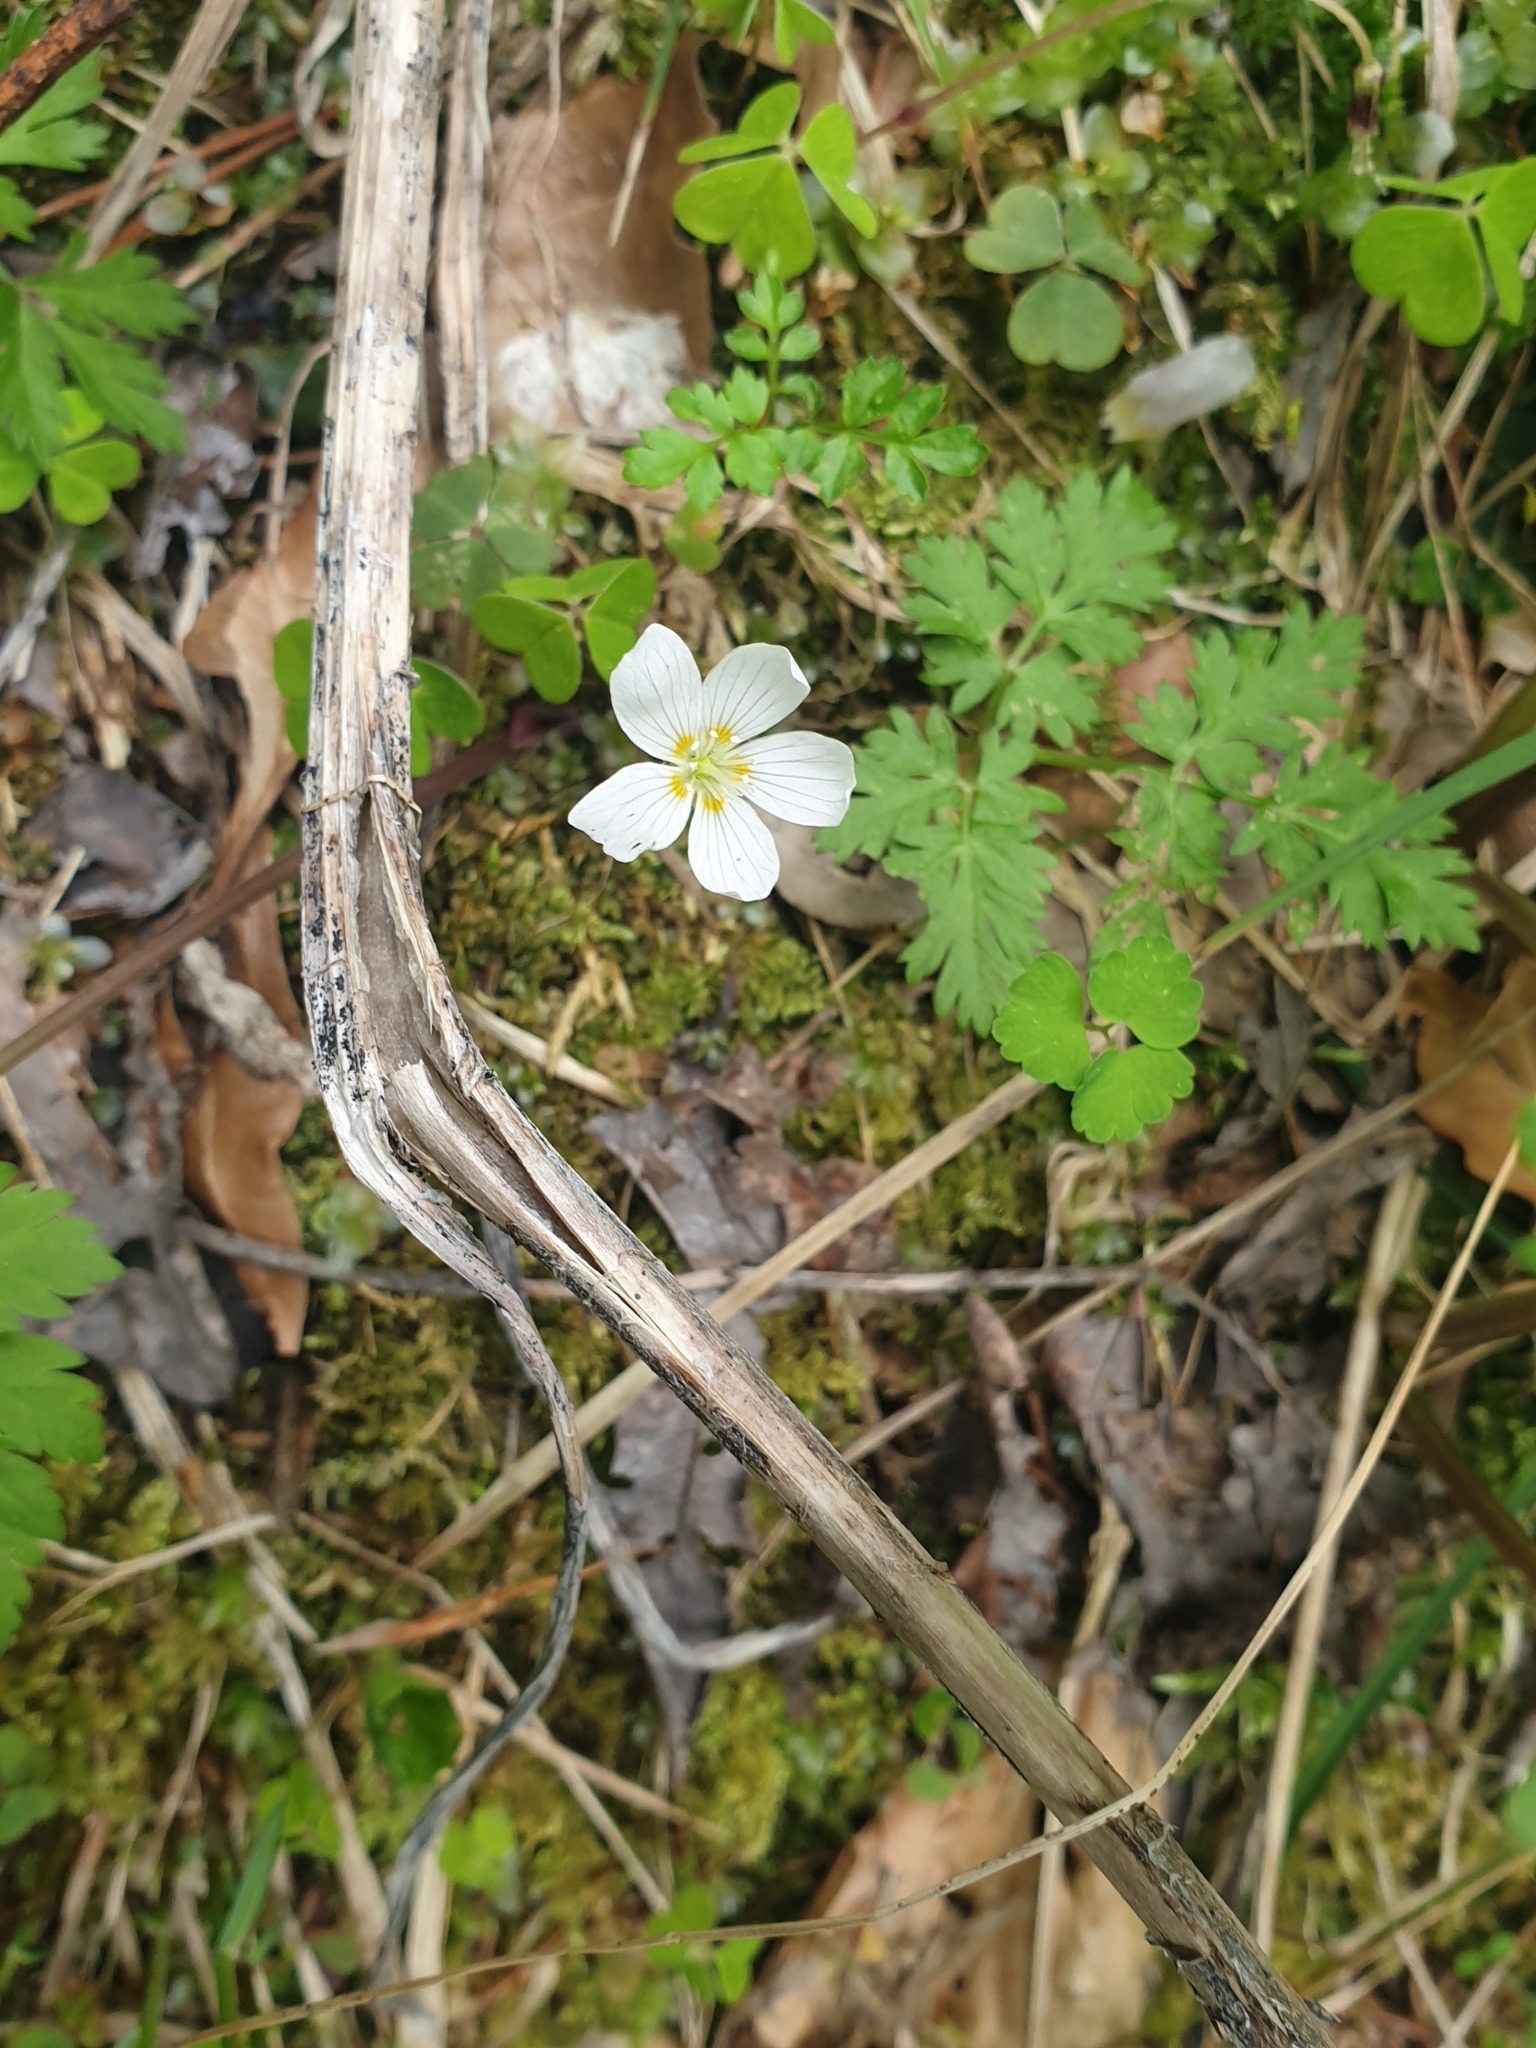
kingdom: Plantae
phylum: Tracheophyta
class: Magnoliopsida
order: Oxalidales
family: Oxalidaceae
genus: Oxalis
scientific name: Oxalis acetosella
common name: Wood-sorrel
